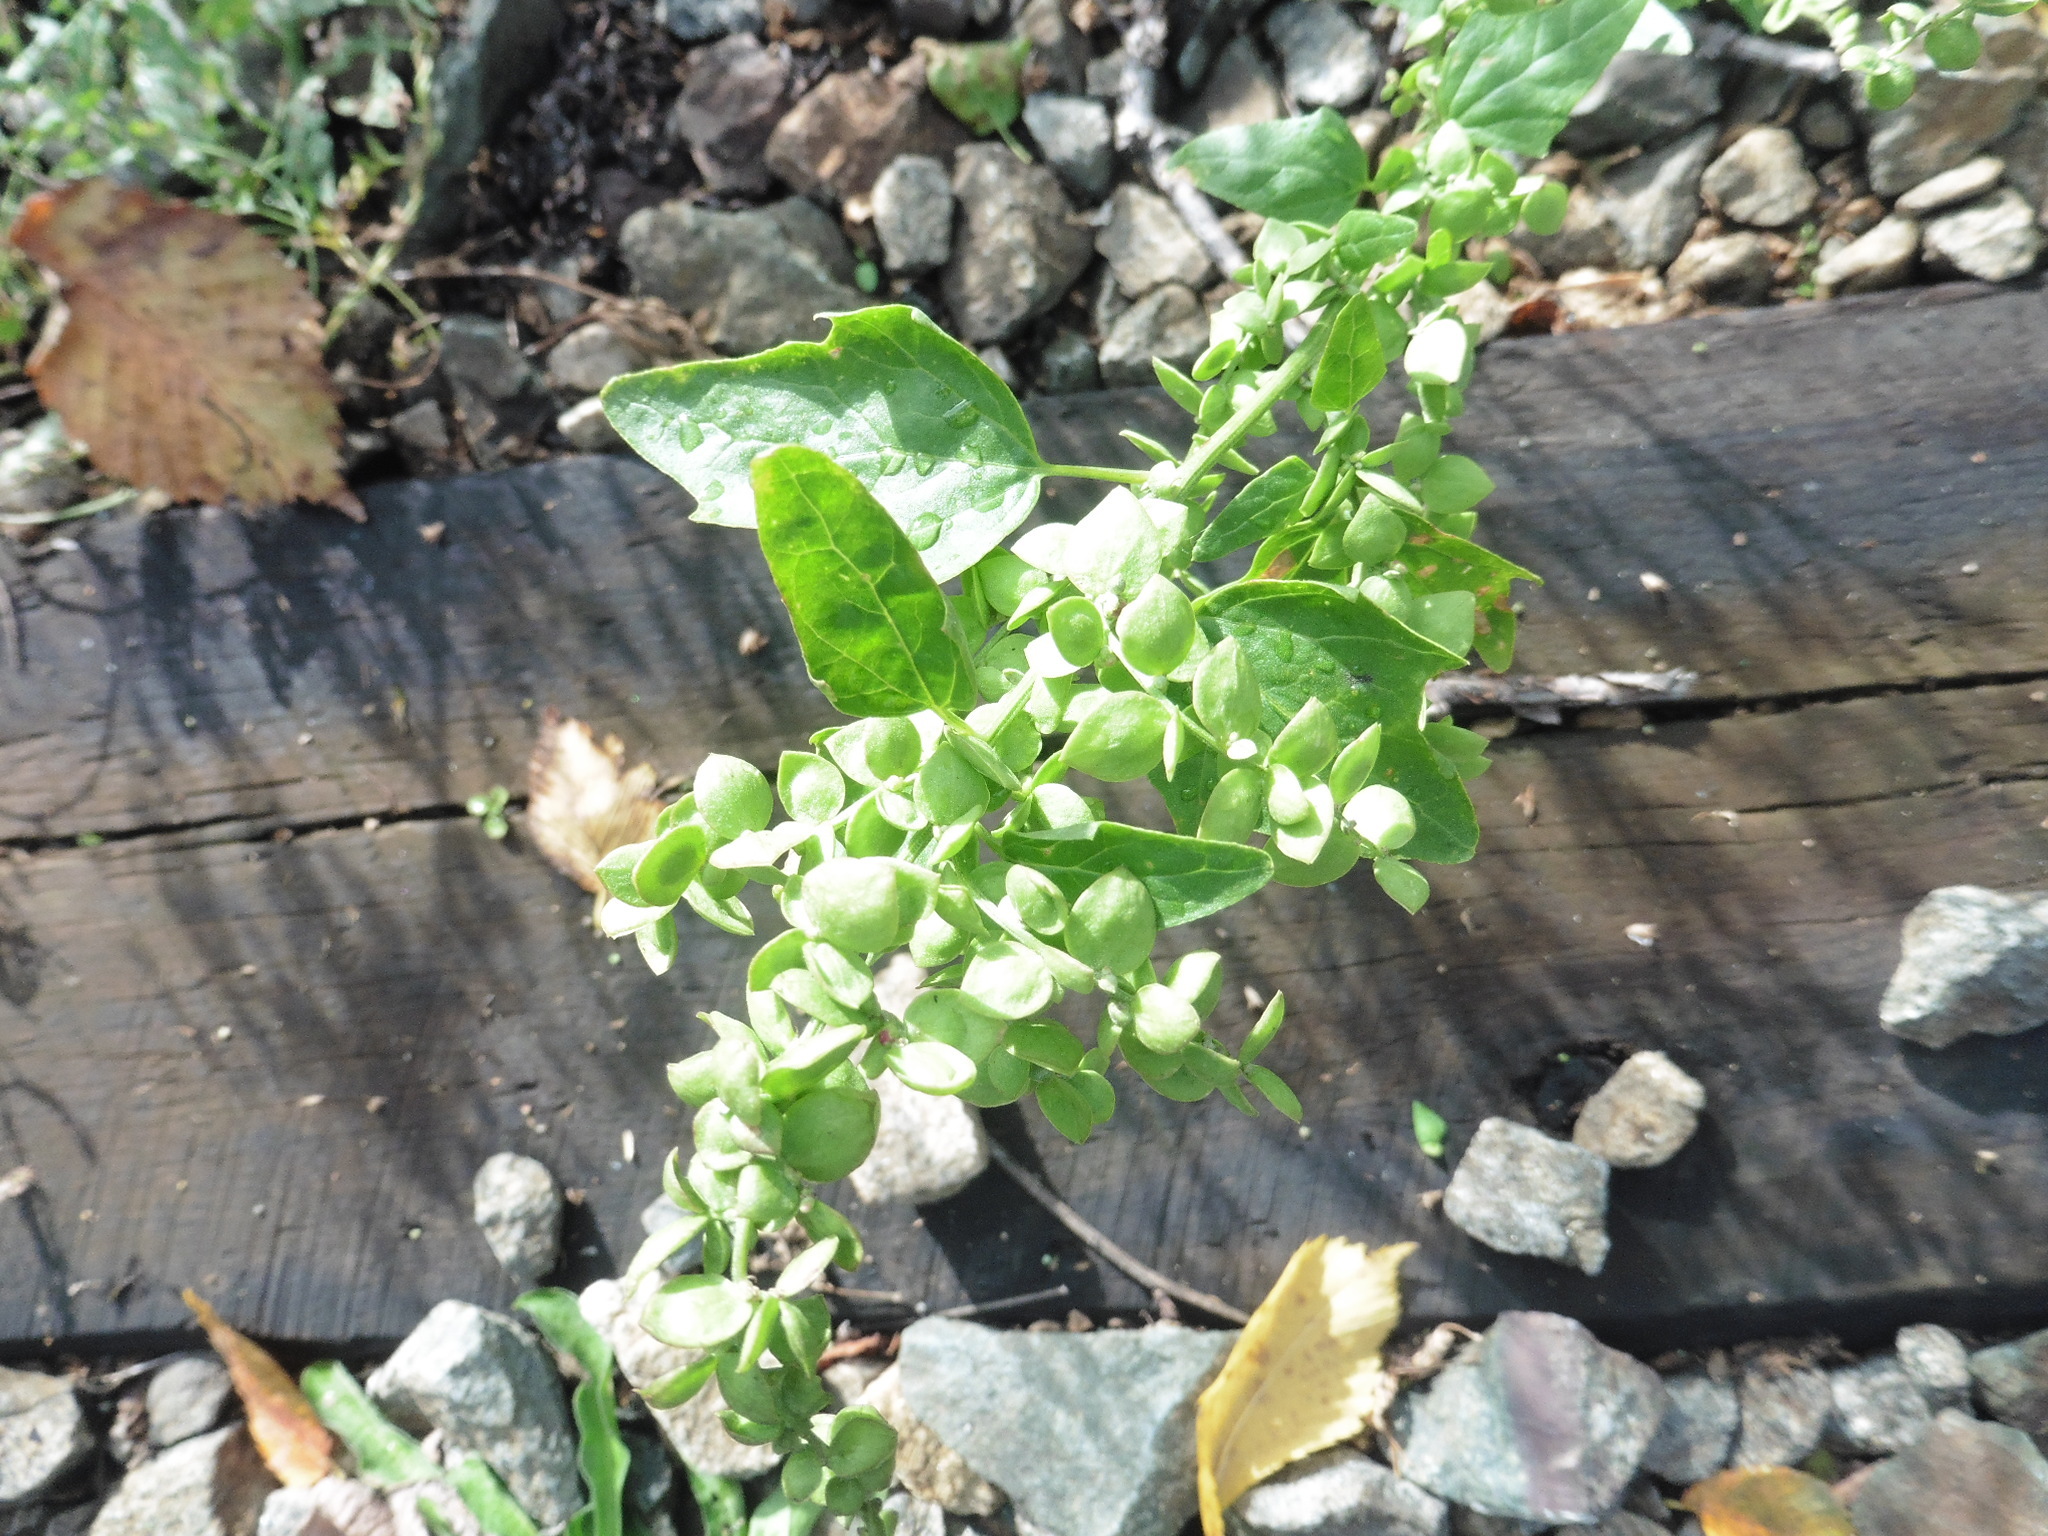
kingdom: Plantae
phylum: Tracheophyta
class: Magnoliopsida
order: Caryophyllales
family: Amaranthaceae
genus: Atriplex
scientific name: Atriplex sagittata
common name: Purple orache
